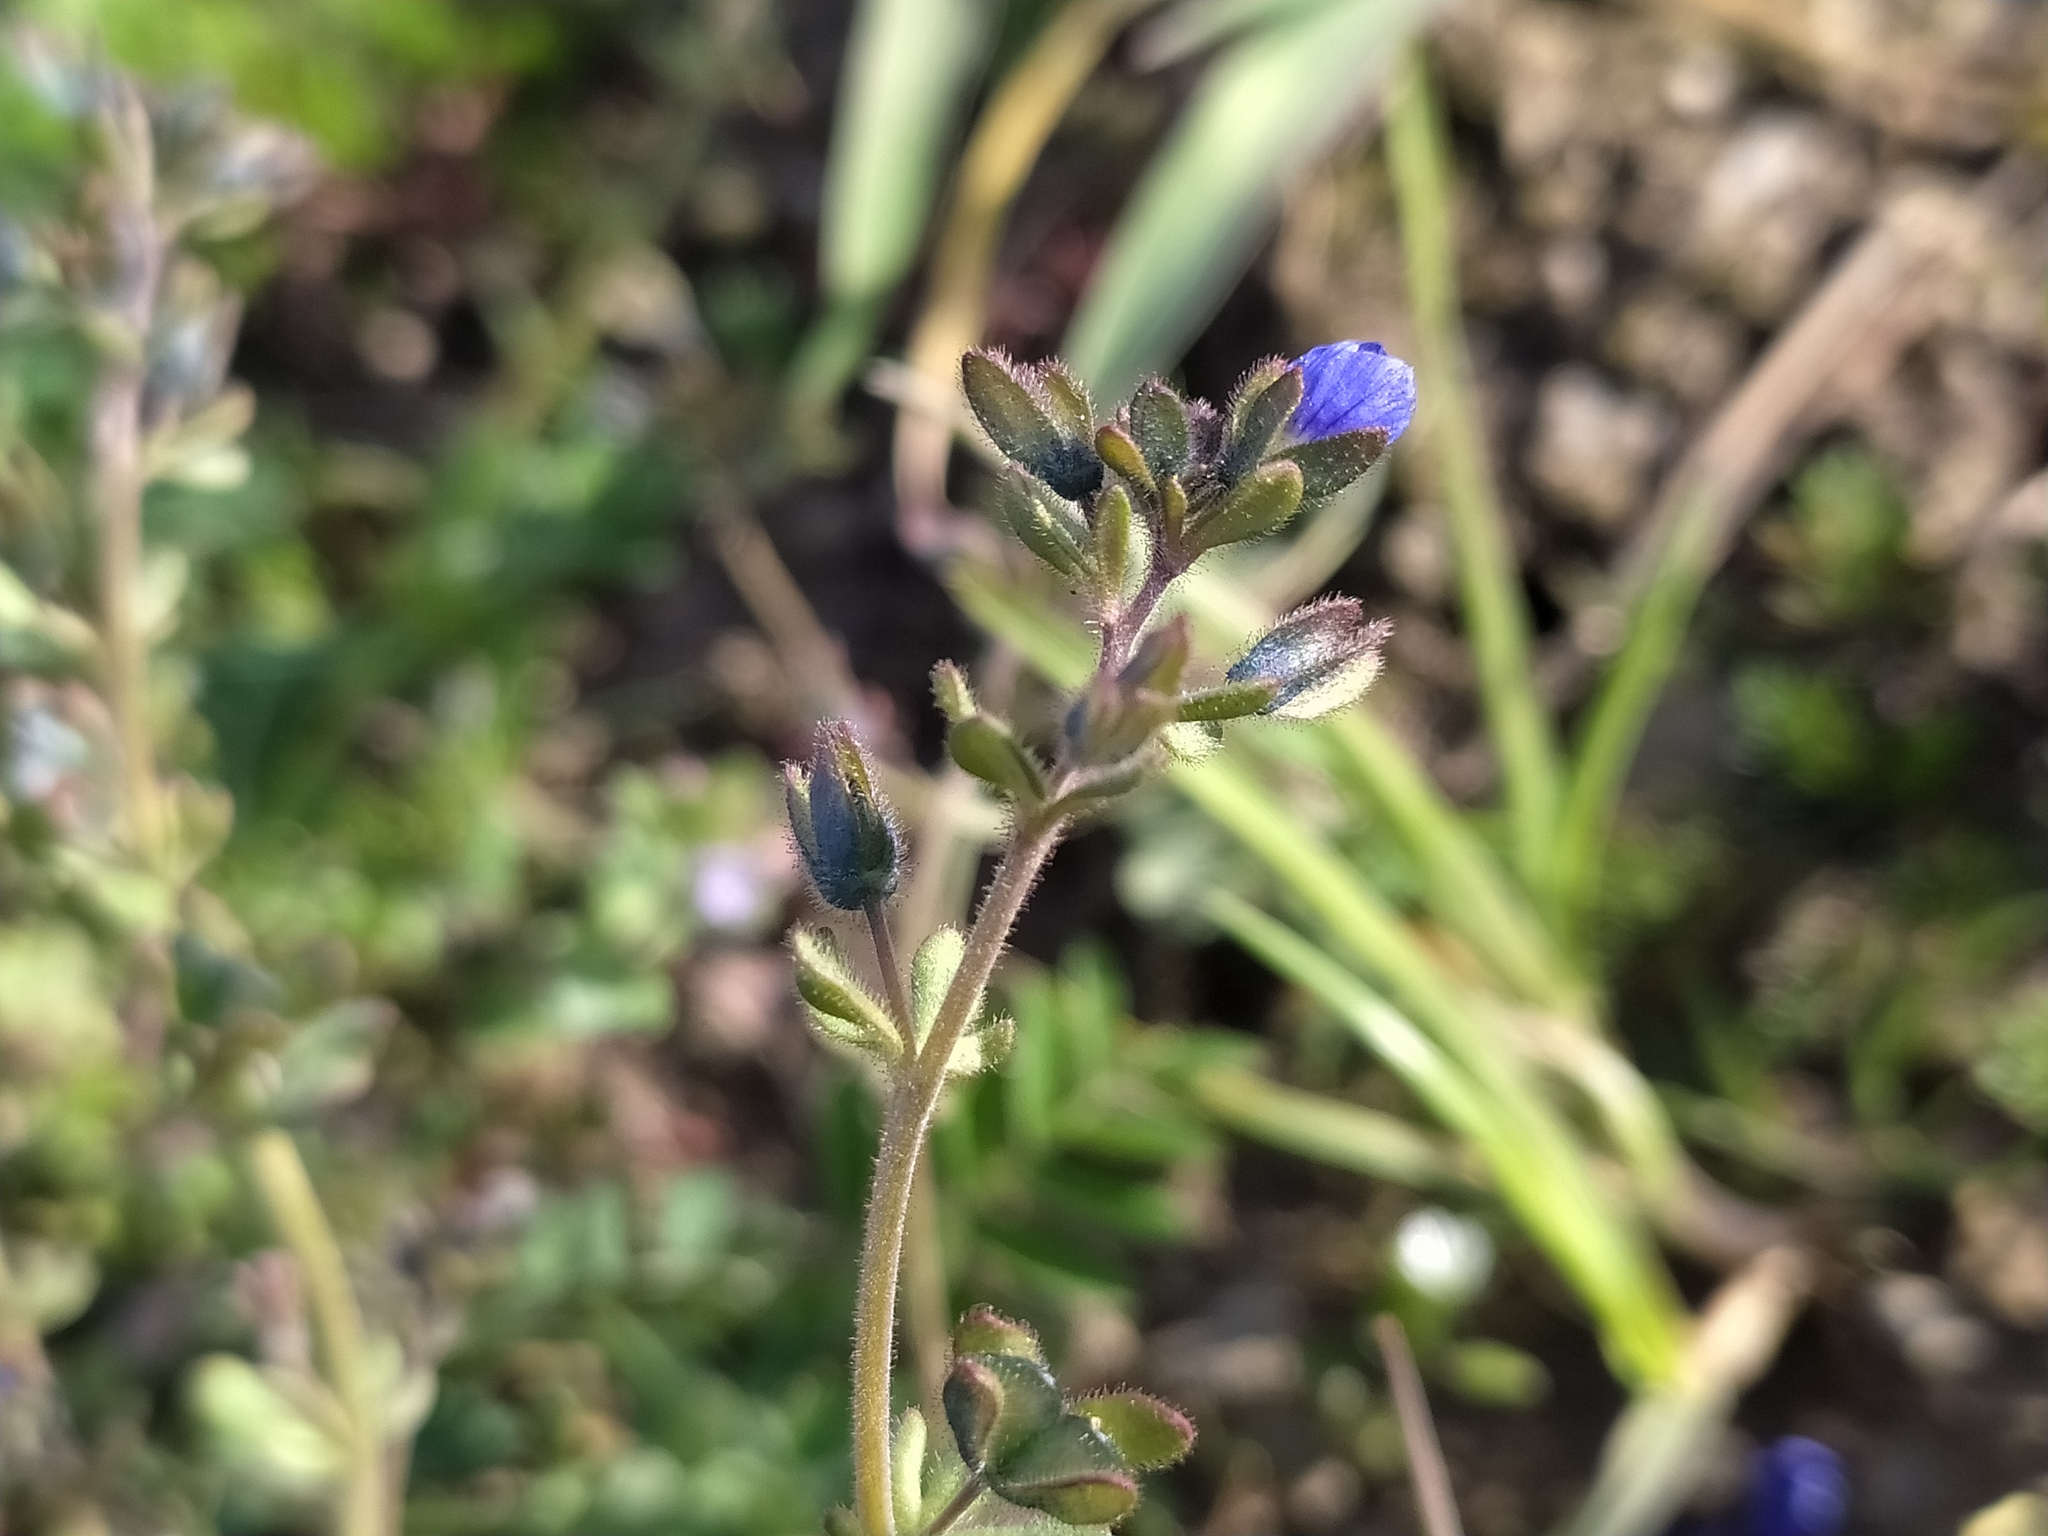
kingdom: Plantae
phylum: Tracheophyta
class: Magnoliopsida
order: Lamiales
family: Plantaginaceae
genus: Veronica
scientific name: Veronica triphyllos
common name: Fingered speedwell
